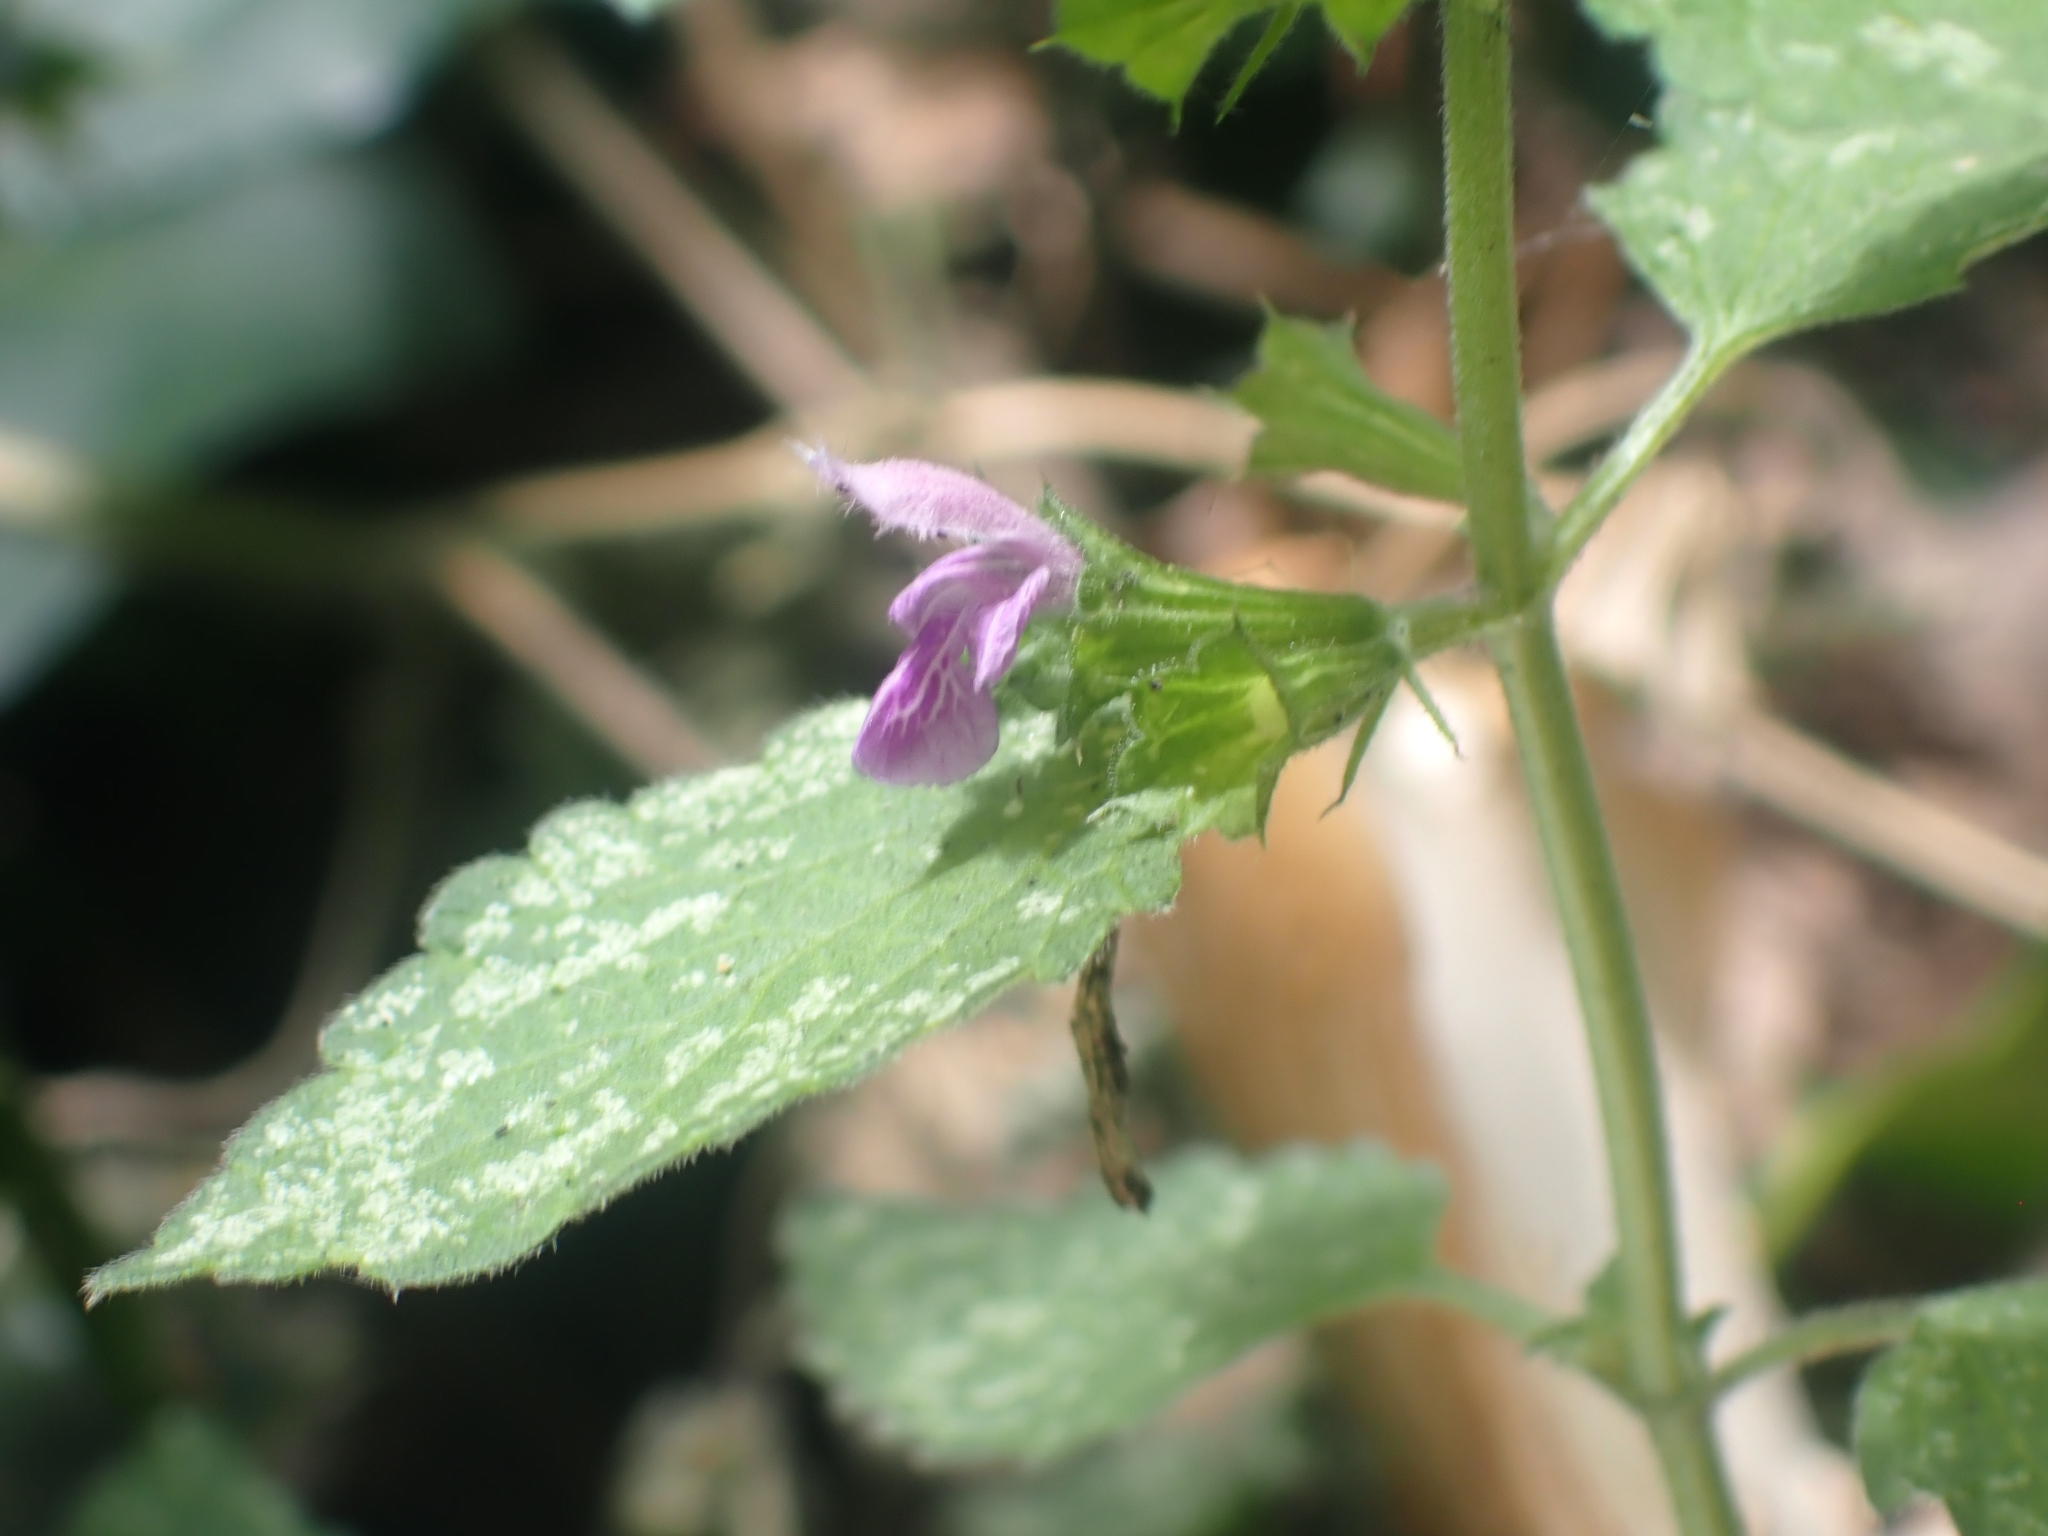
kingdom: Plantae
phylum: Tracheophyta
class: Magnoliopsida
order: Lamiales
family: Lamiaceae
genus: Ballota
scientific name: Ballota nigra
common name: Black horehound
